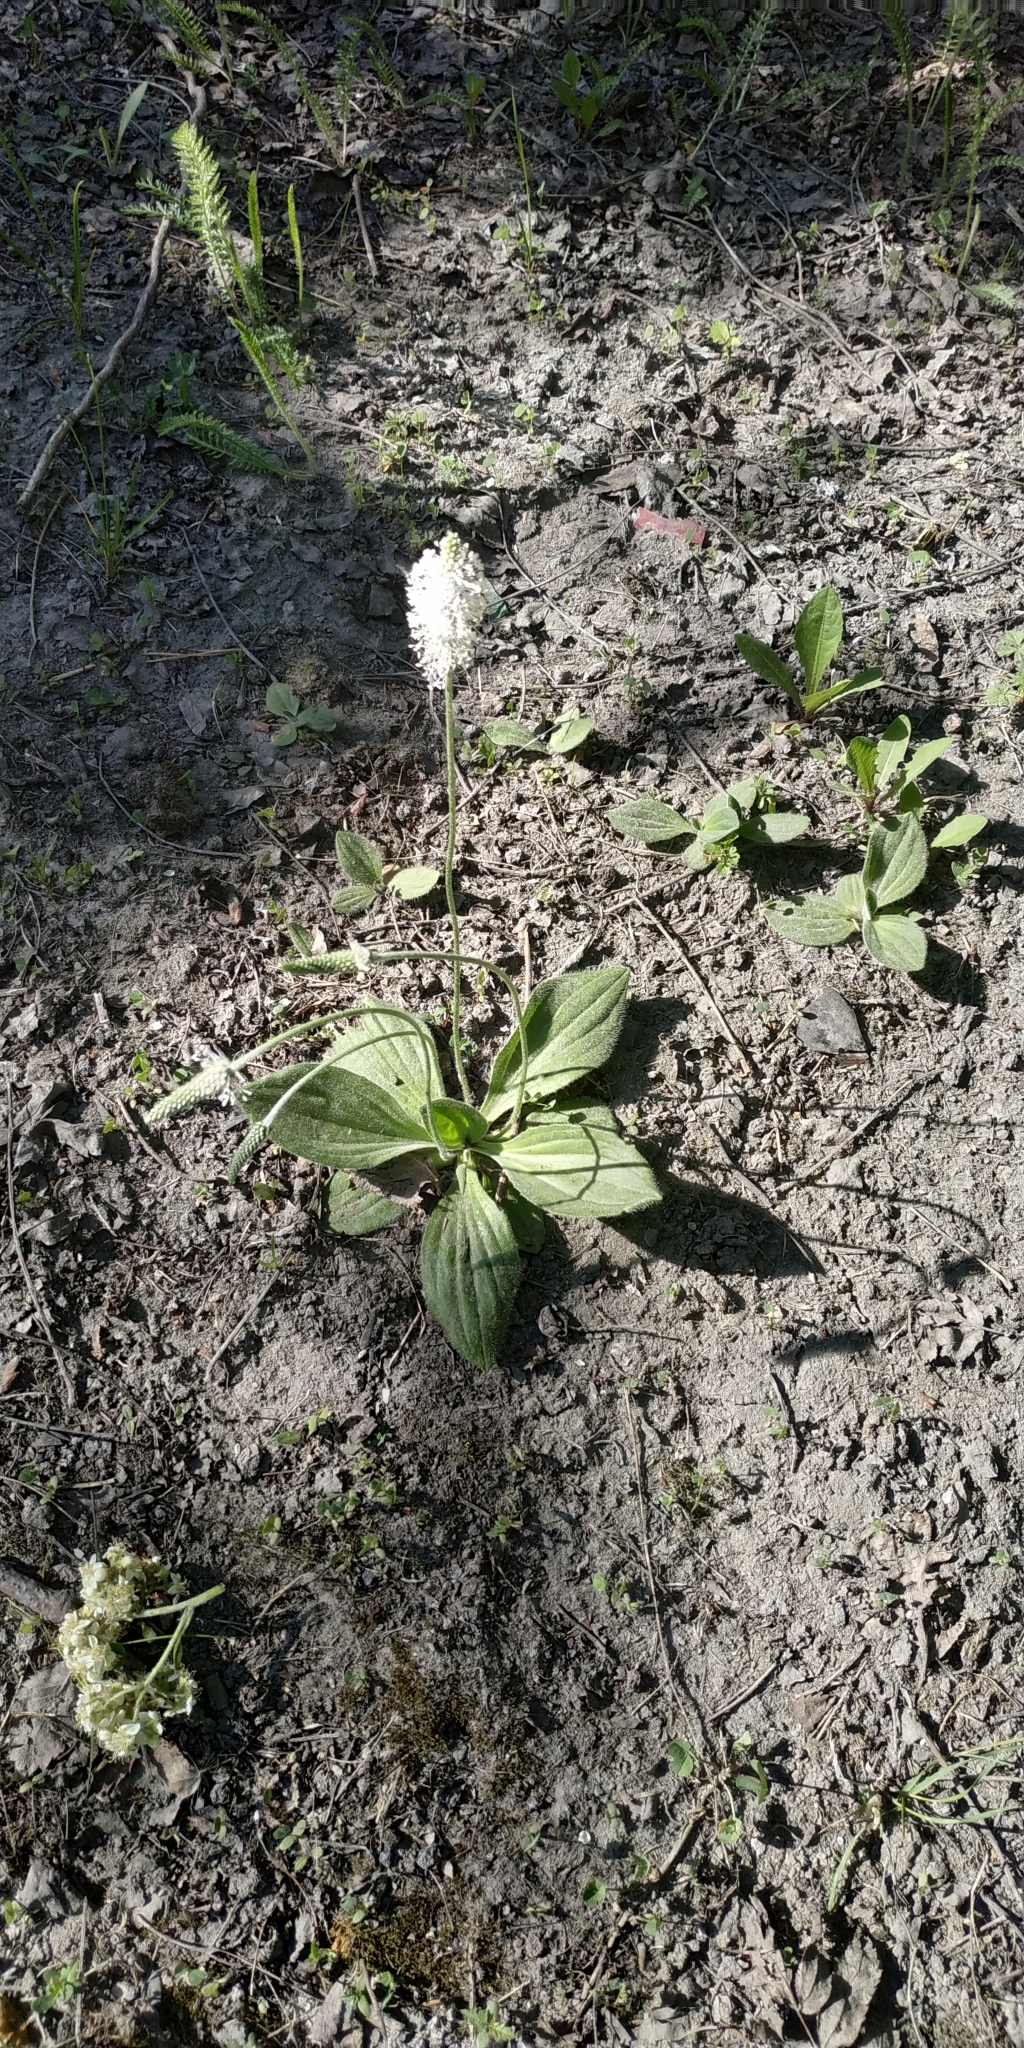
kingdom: Plantae
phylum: Tracheophyta
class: Magnoliopsida
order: Lamiales
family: Plantaginaceae
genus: Plantago
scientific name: Plantago media
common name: Hoary plantain
